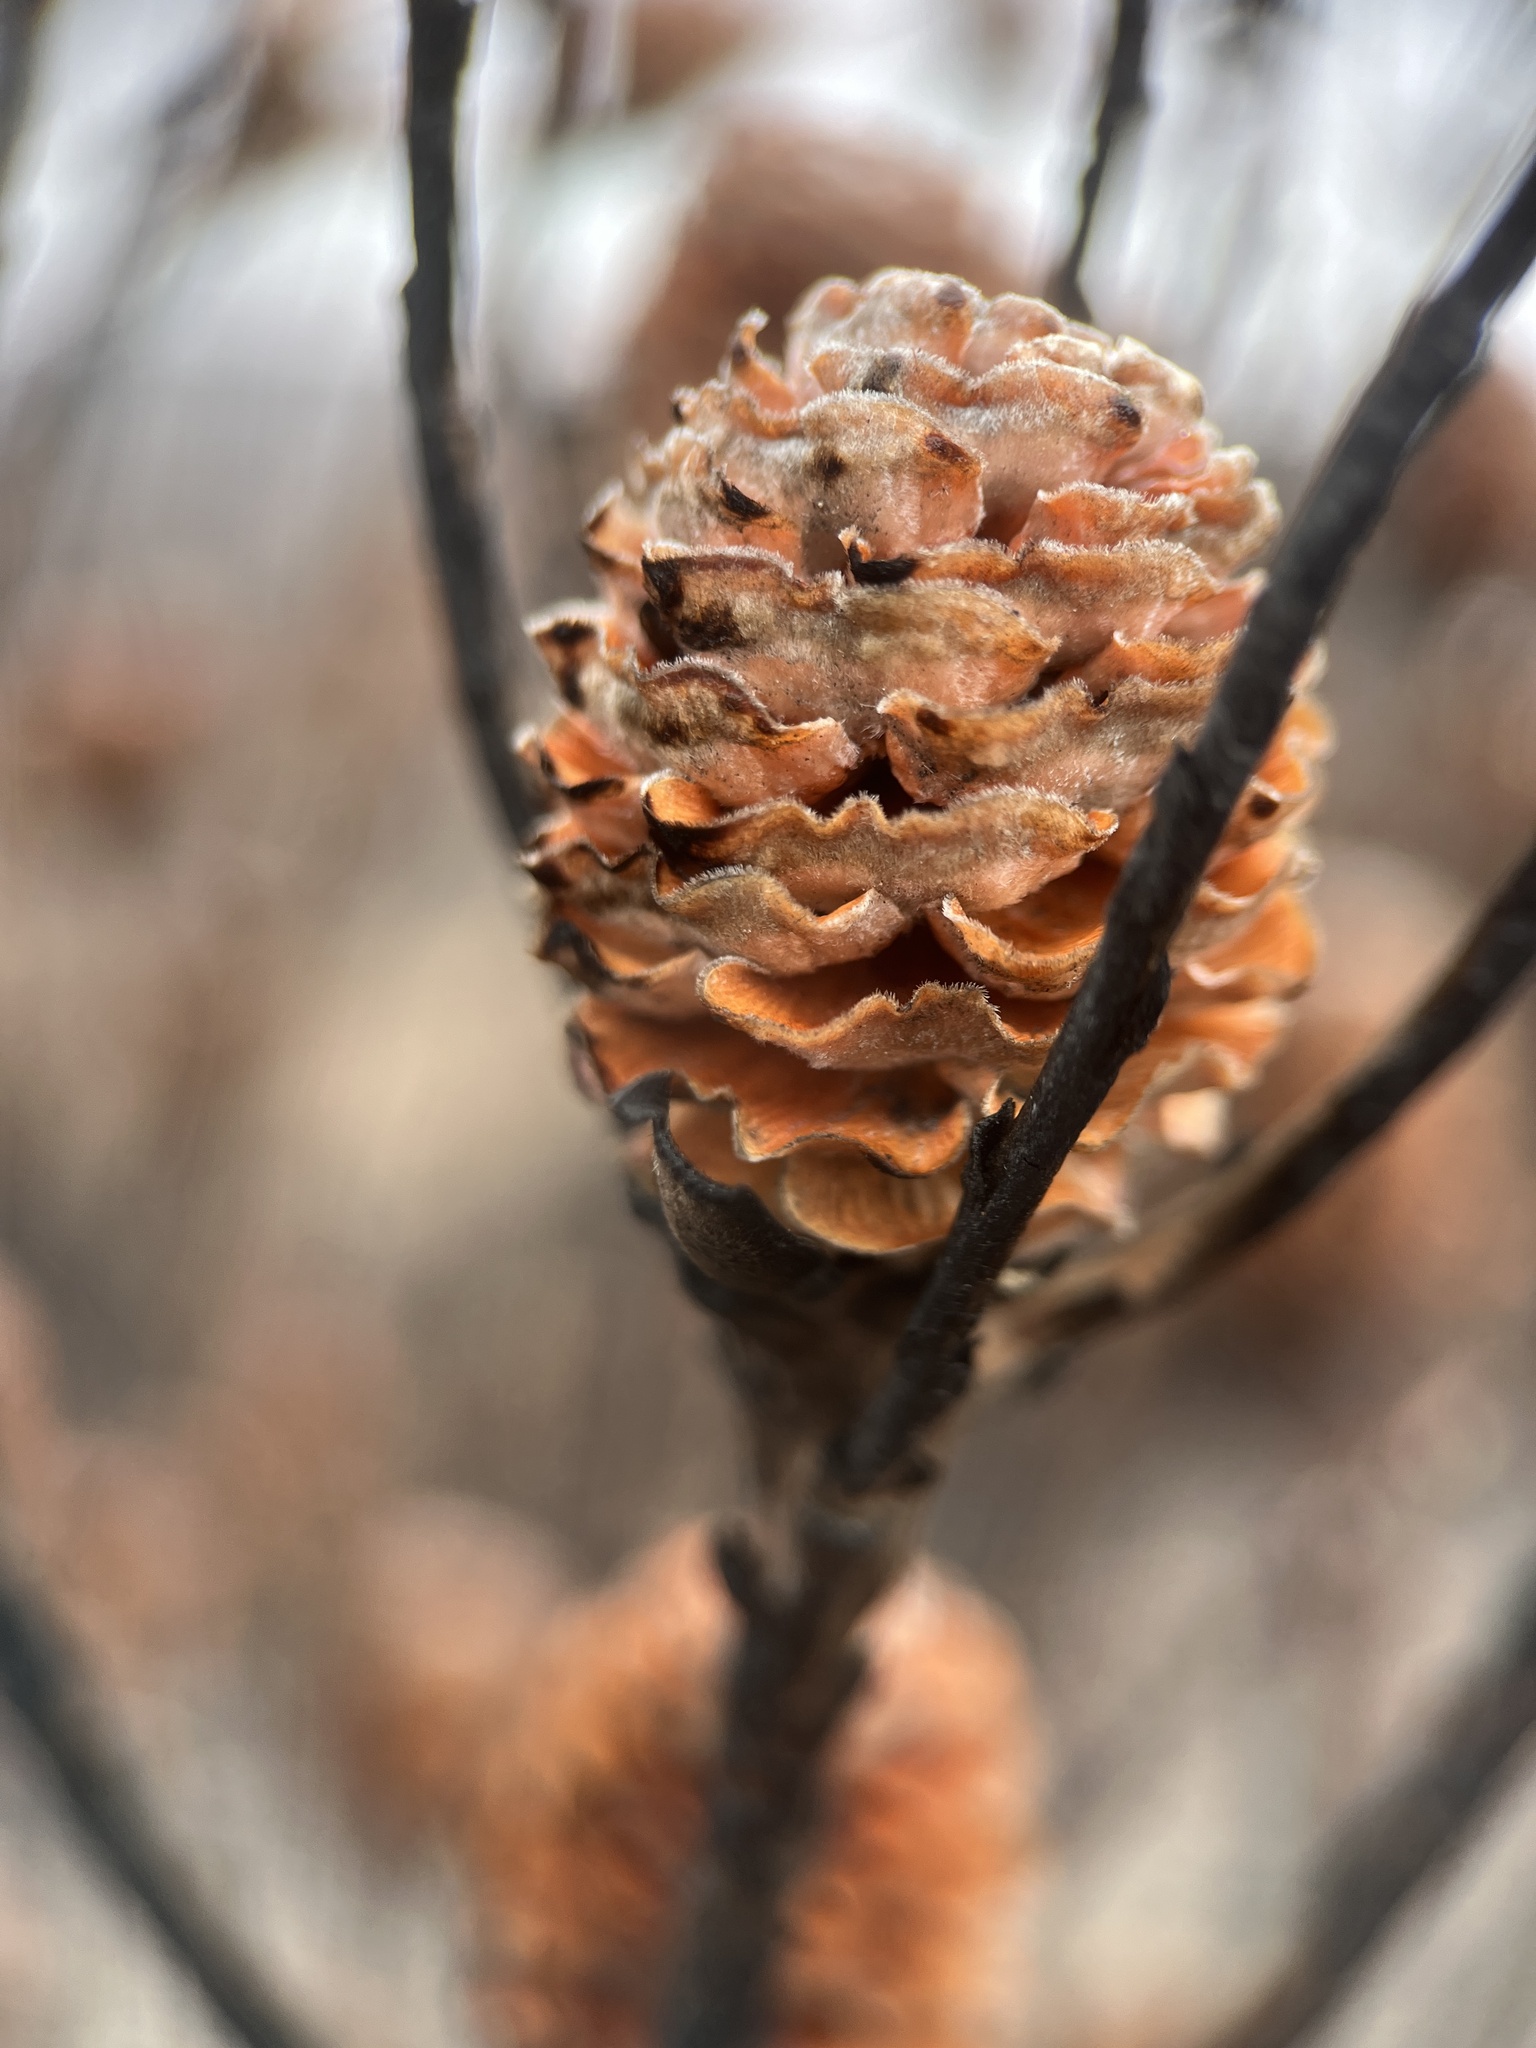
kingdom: Plantae
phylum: Tracheophyta
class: Magnoliopsida
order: Proteales
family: Proteaceae
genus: Leucadendron
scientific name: Leucadendron meridianum
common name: Limestone conebush
